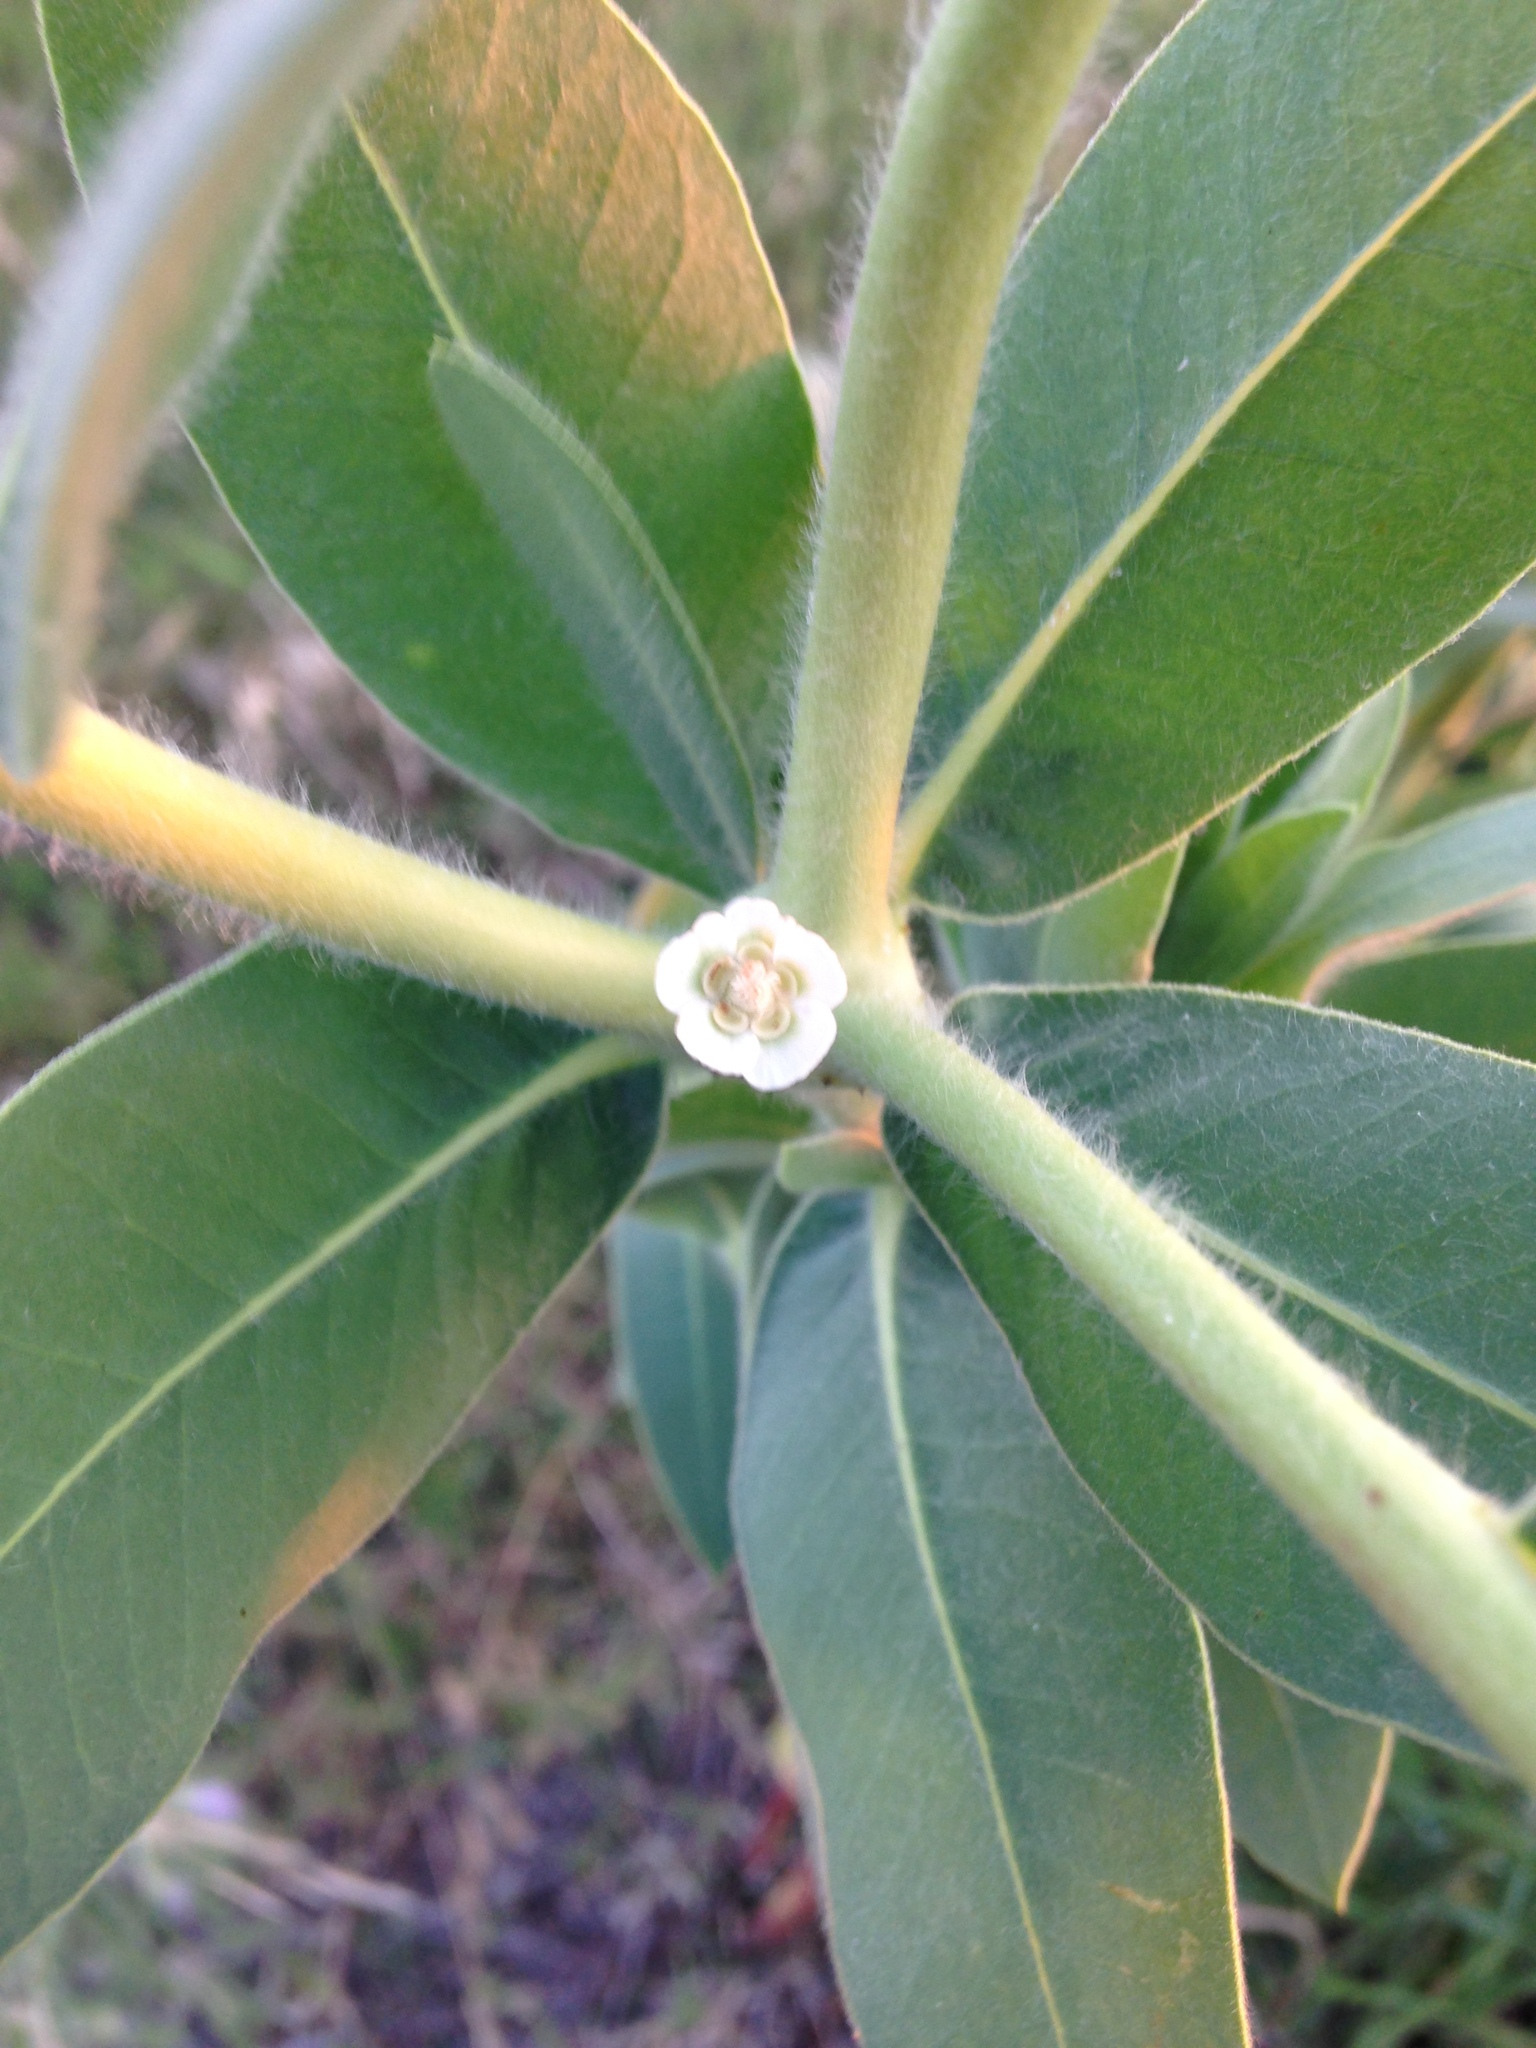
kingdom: Plantae
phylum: Tracheophyta
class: Magnoliopsida
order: Malpighiales
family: Euphorbiaceae
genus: Euphorbia
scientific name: Euphorbia bicolor
